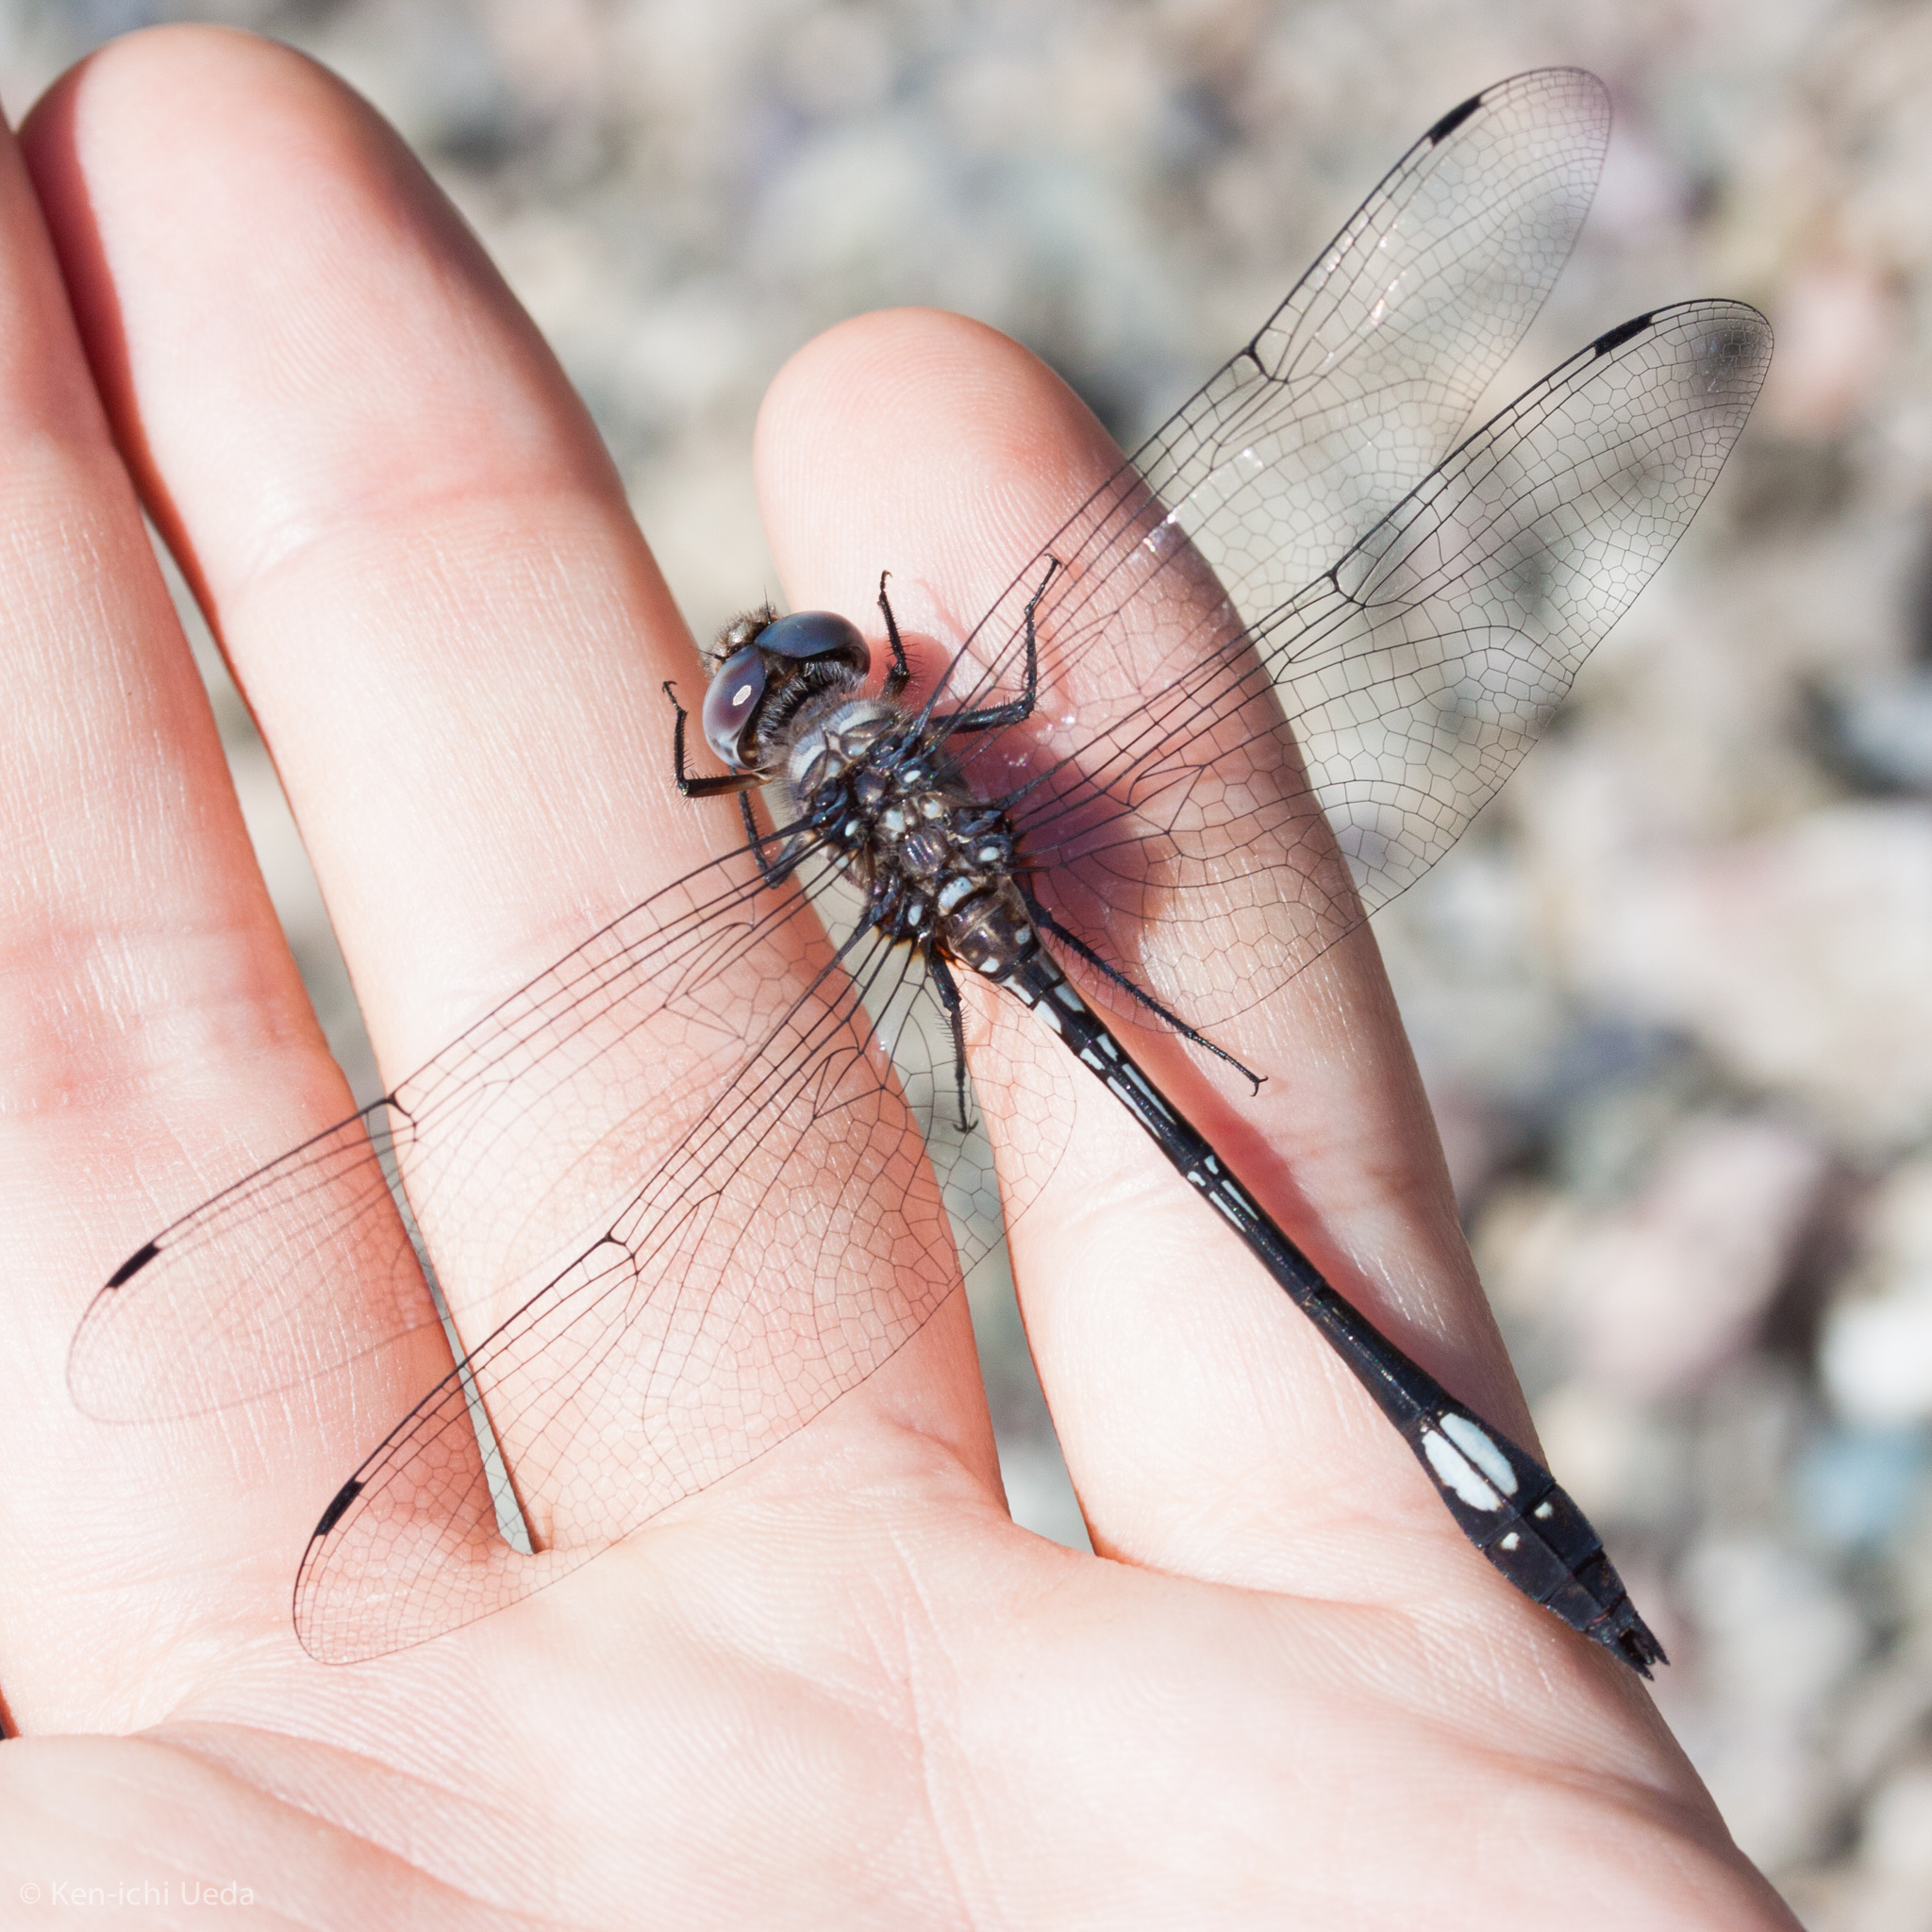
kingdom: Animalia
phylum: Arthropoda
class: Insecta
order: Odonata
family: Libellulidae
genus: Brechmorhoga
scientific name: Brechmorhoga mendax
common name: Pale-faced clubskimmer
